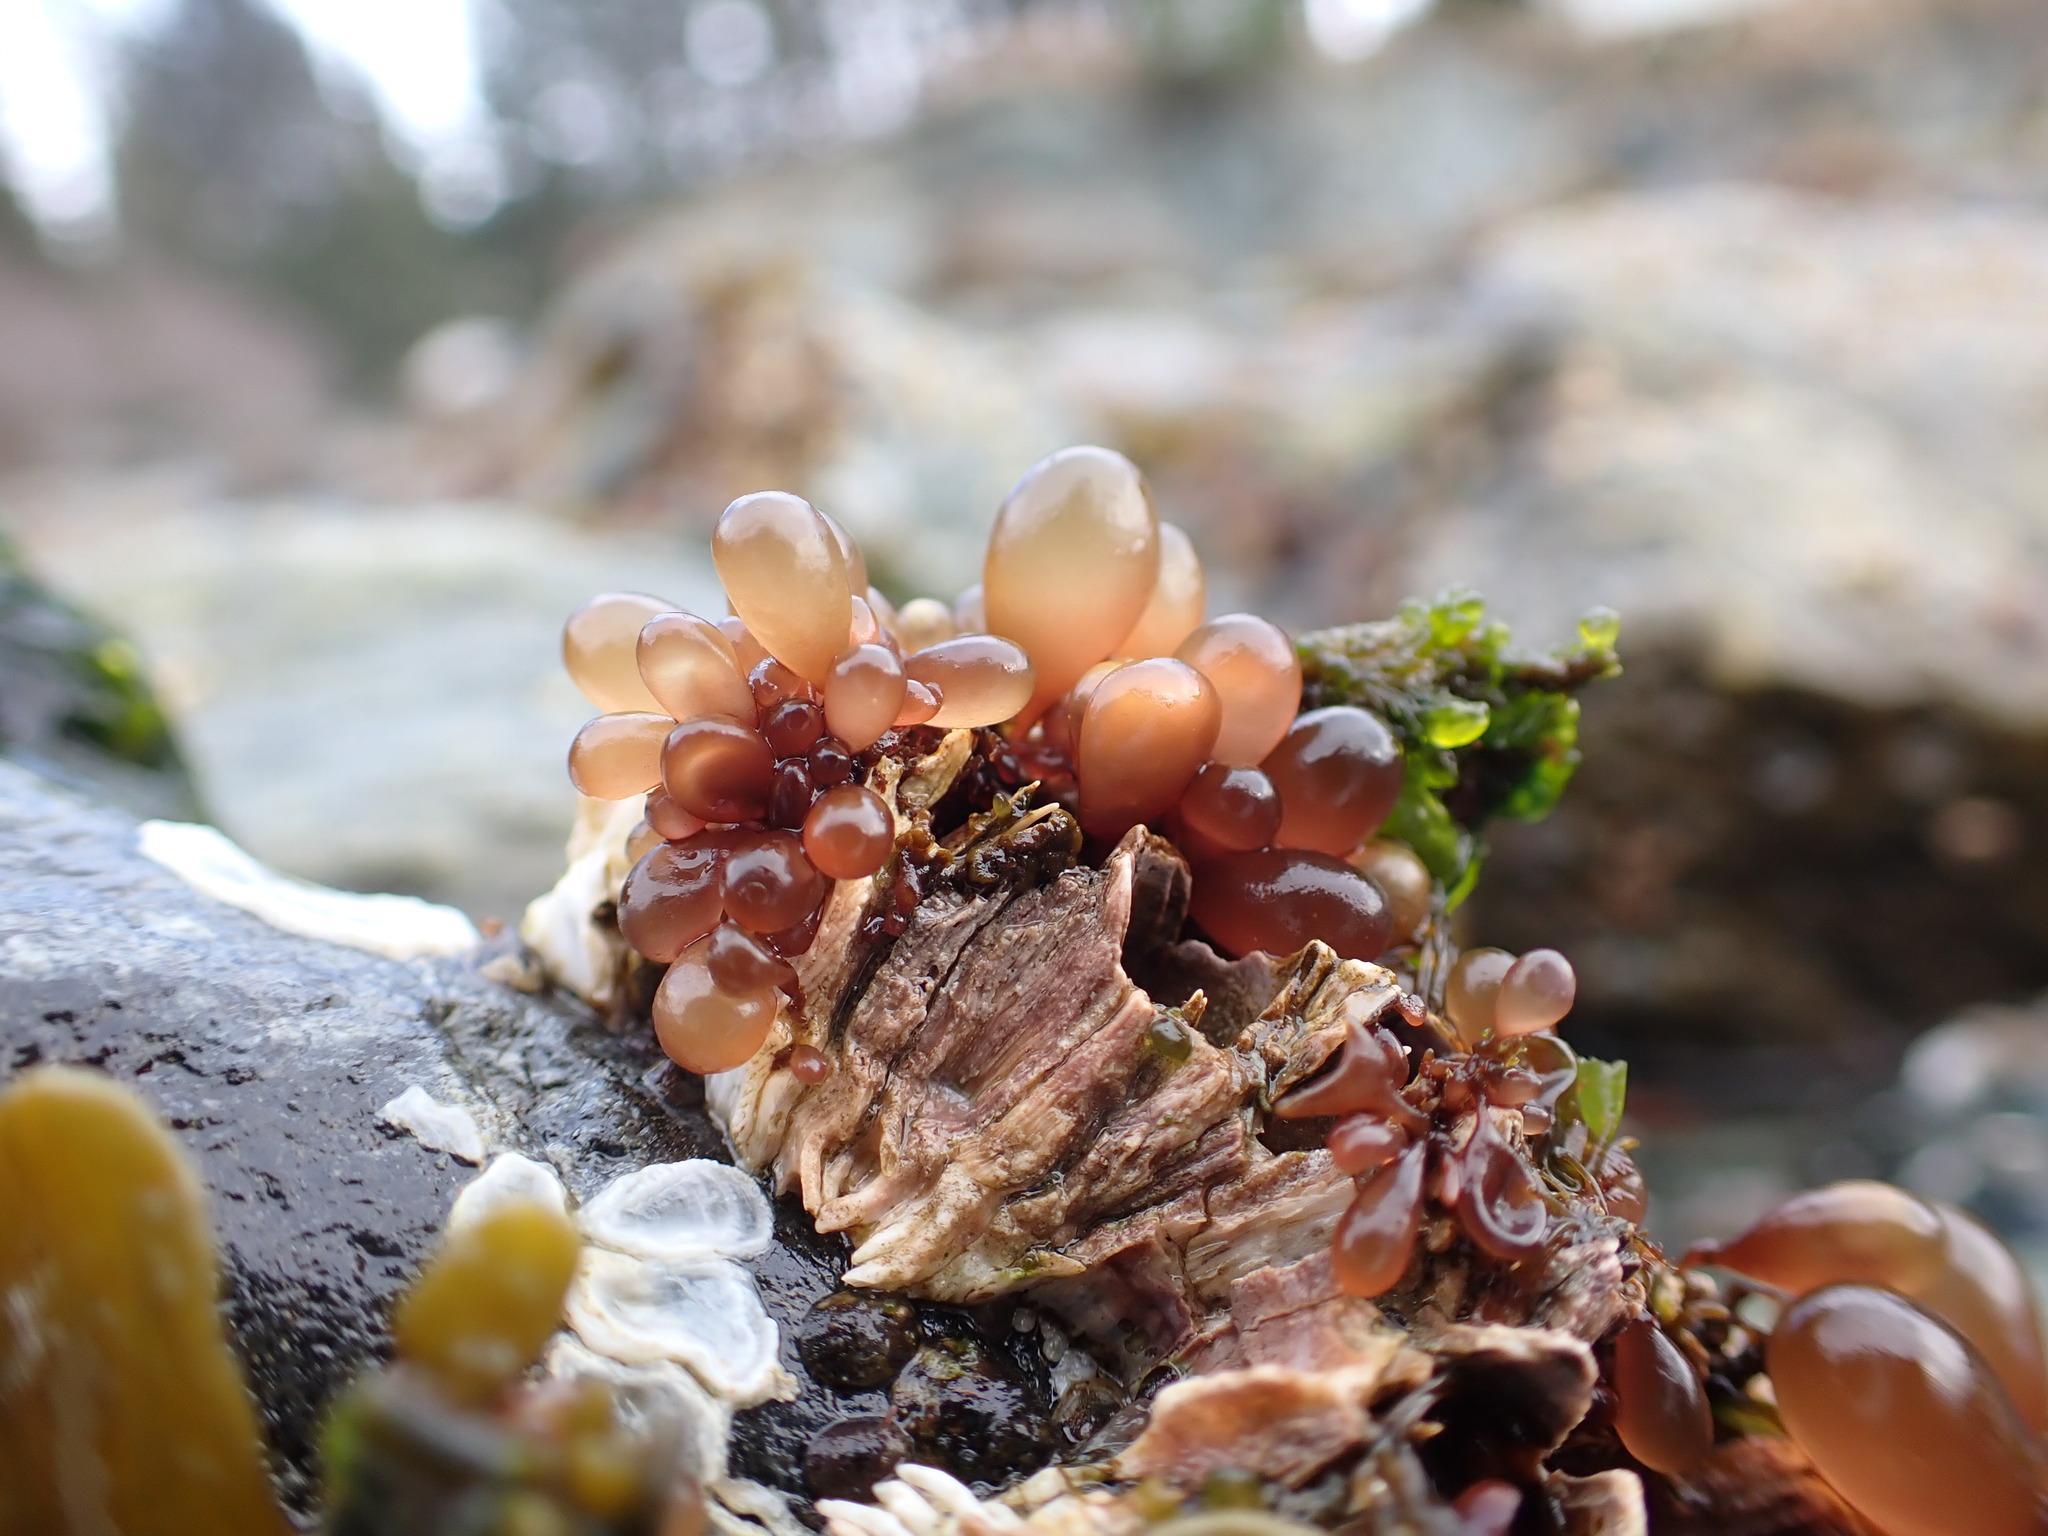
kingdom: Plantae
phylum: Rhodophyta
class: Florideophyceae
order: Palmariales
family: Palmariaceae
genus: Halosaccion
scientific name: Halosaccion glandiforme
